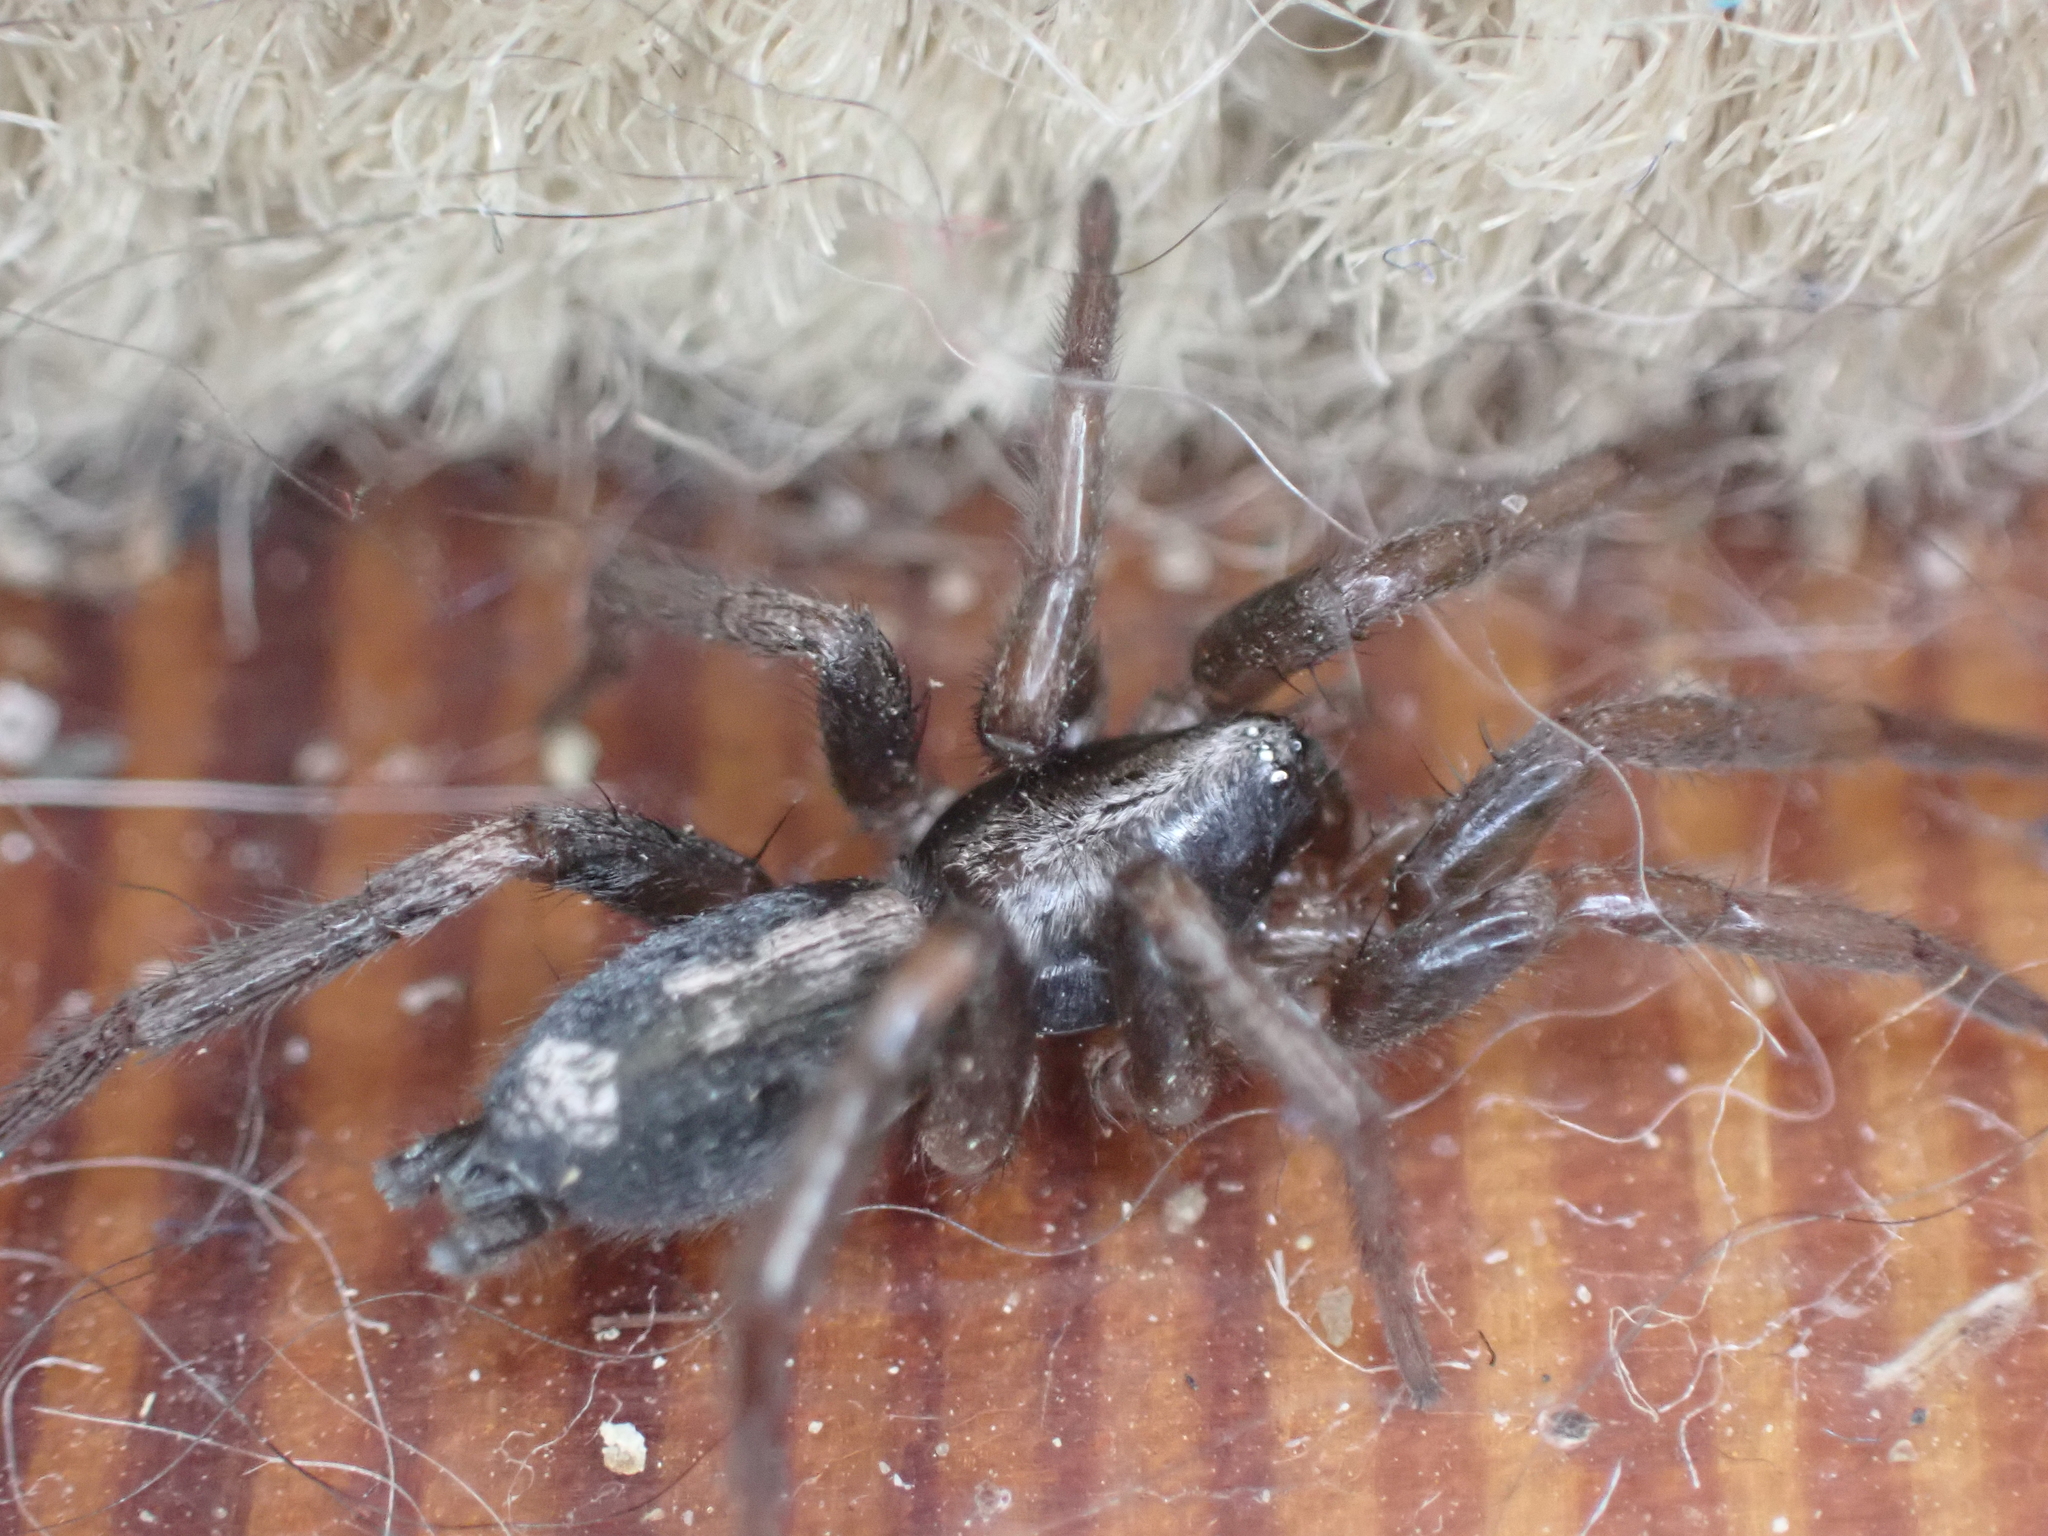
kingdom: Animalia
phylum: Arthropoda
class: Arachnida
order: Araneae
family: Gnaphosidae
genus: Herpyllus
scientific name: Herpyllus ecclesiasticus
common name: Eastern parson spider
